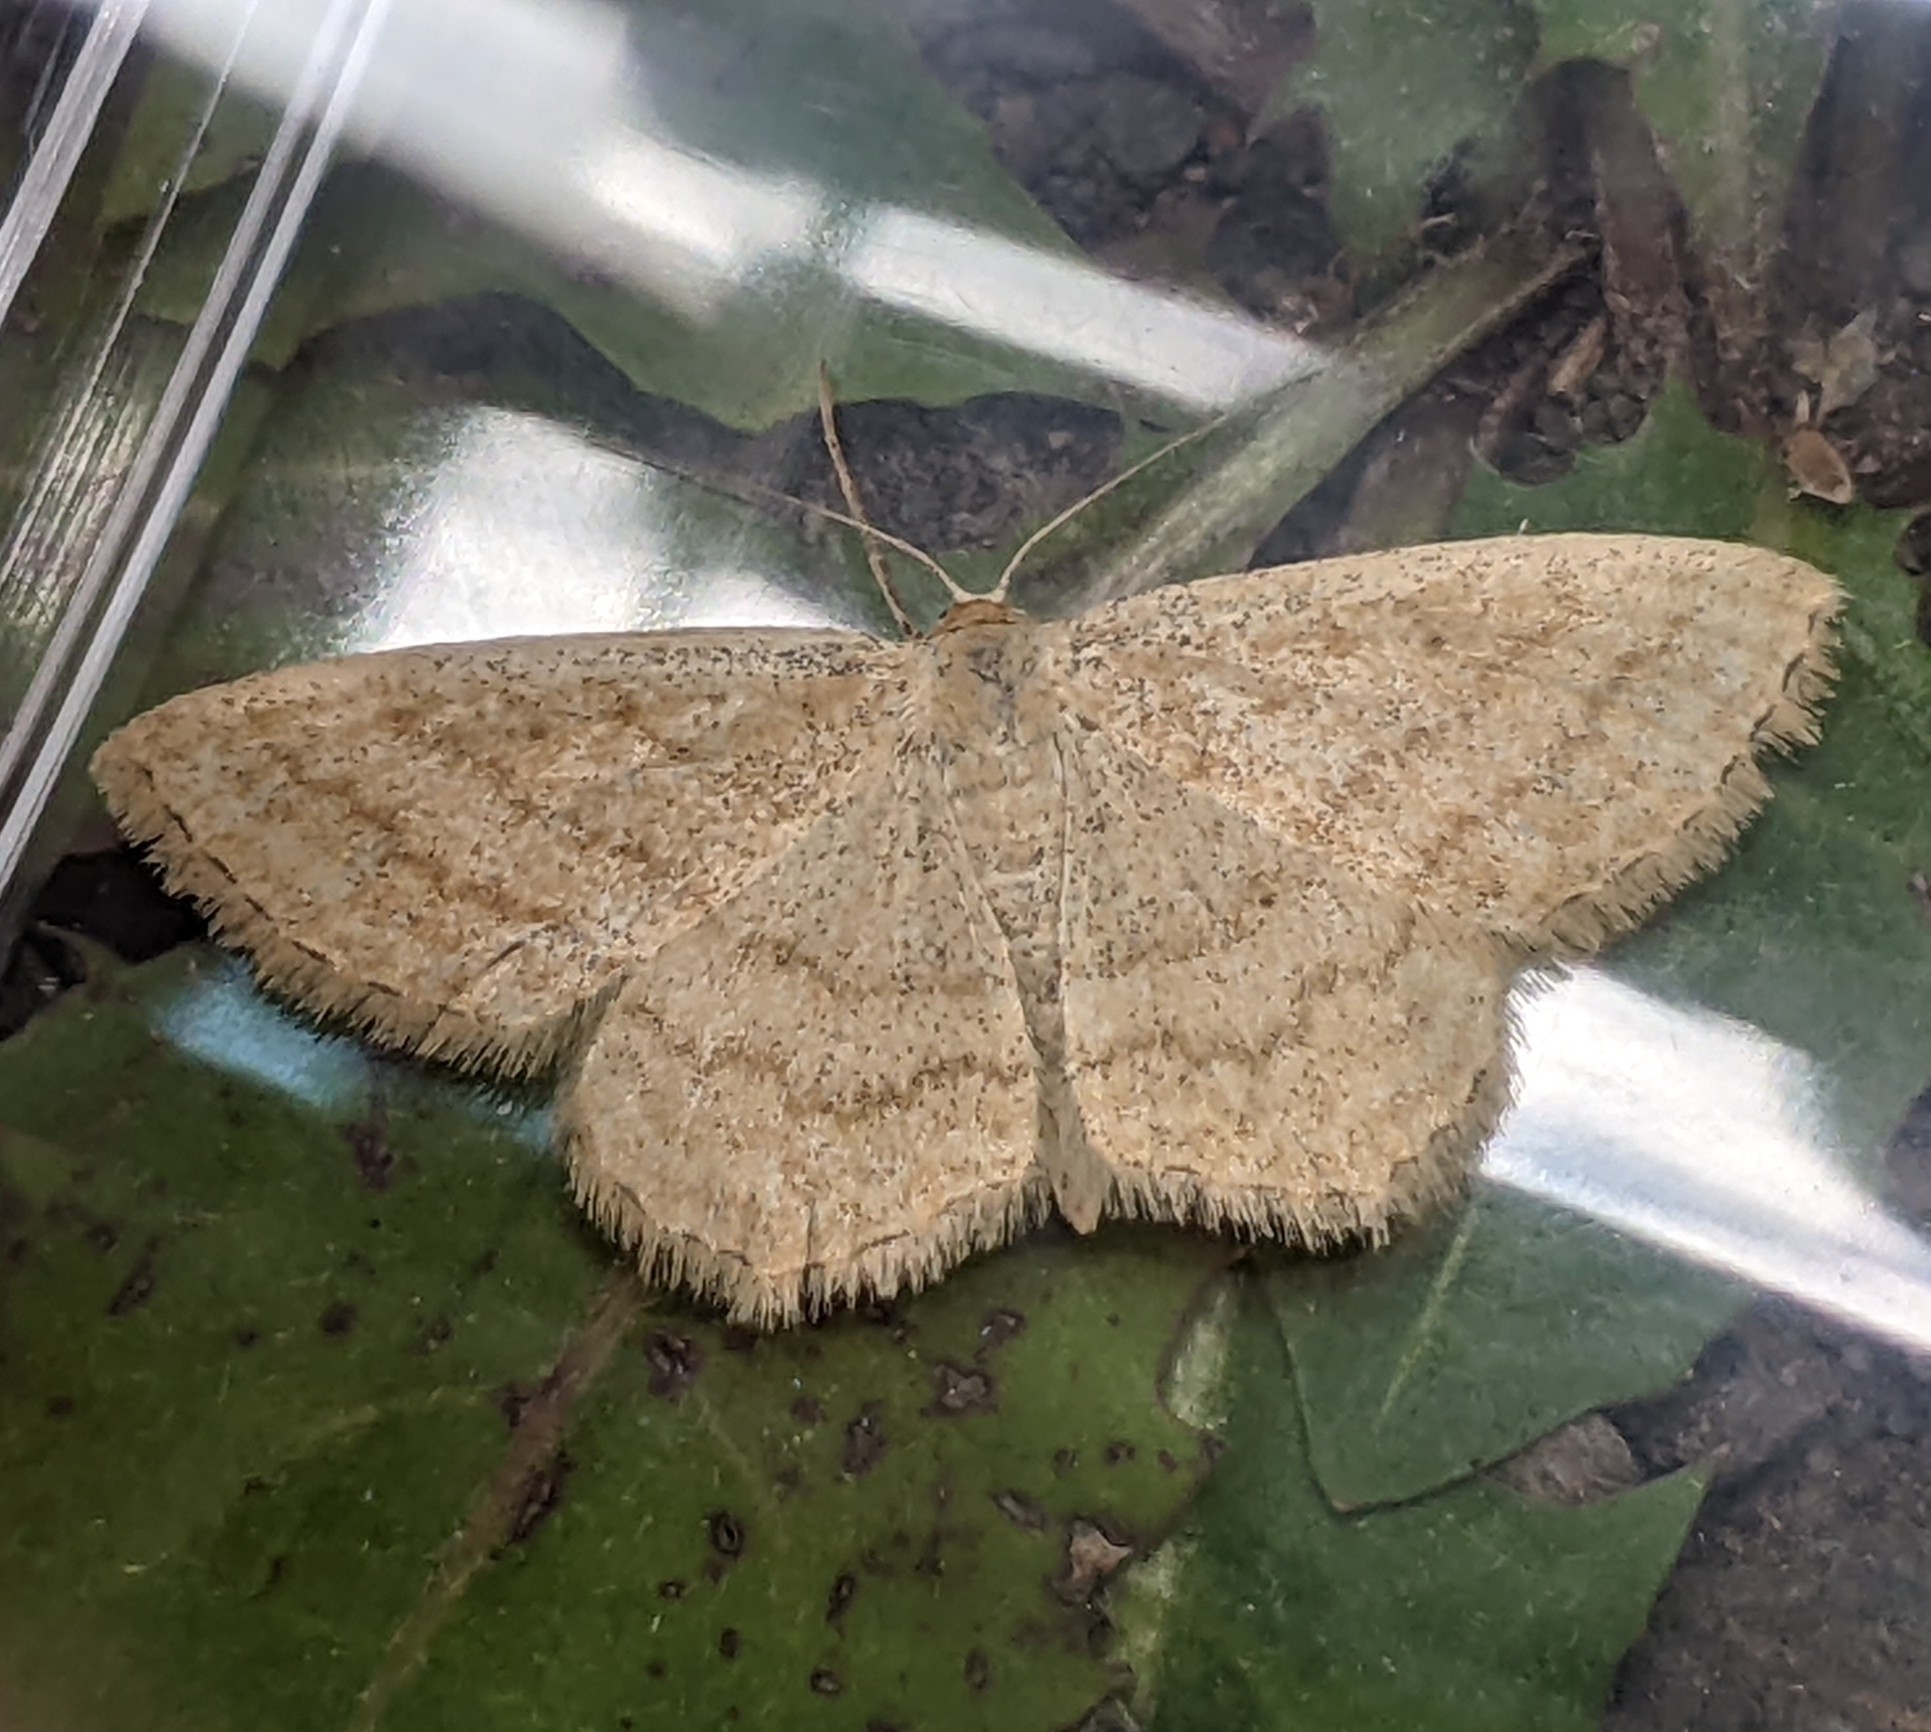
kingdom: Animalia
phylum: Arthropoda
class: Insecta
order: Lepidoptera
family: Geometridae
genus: Scopula
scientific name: Scopula luteolata
